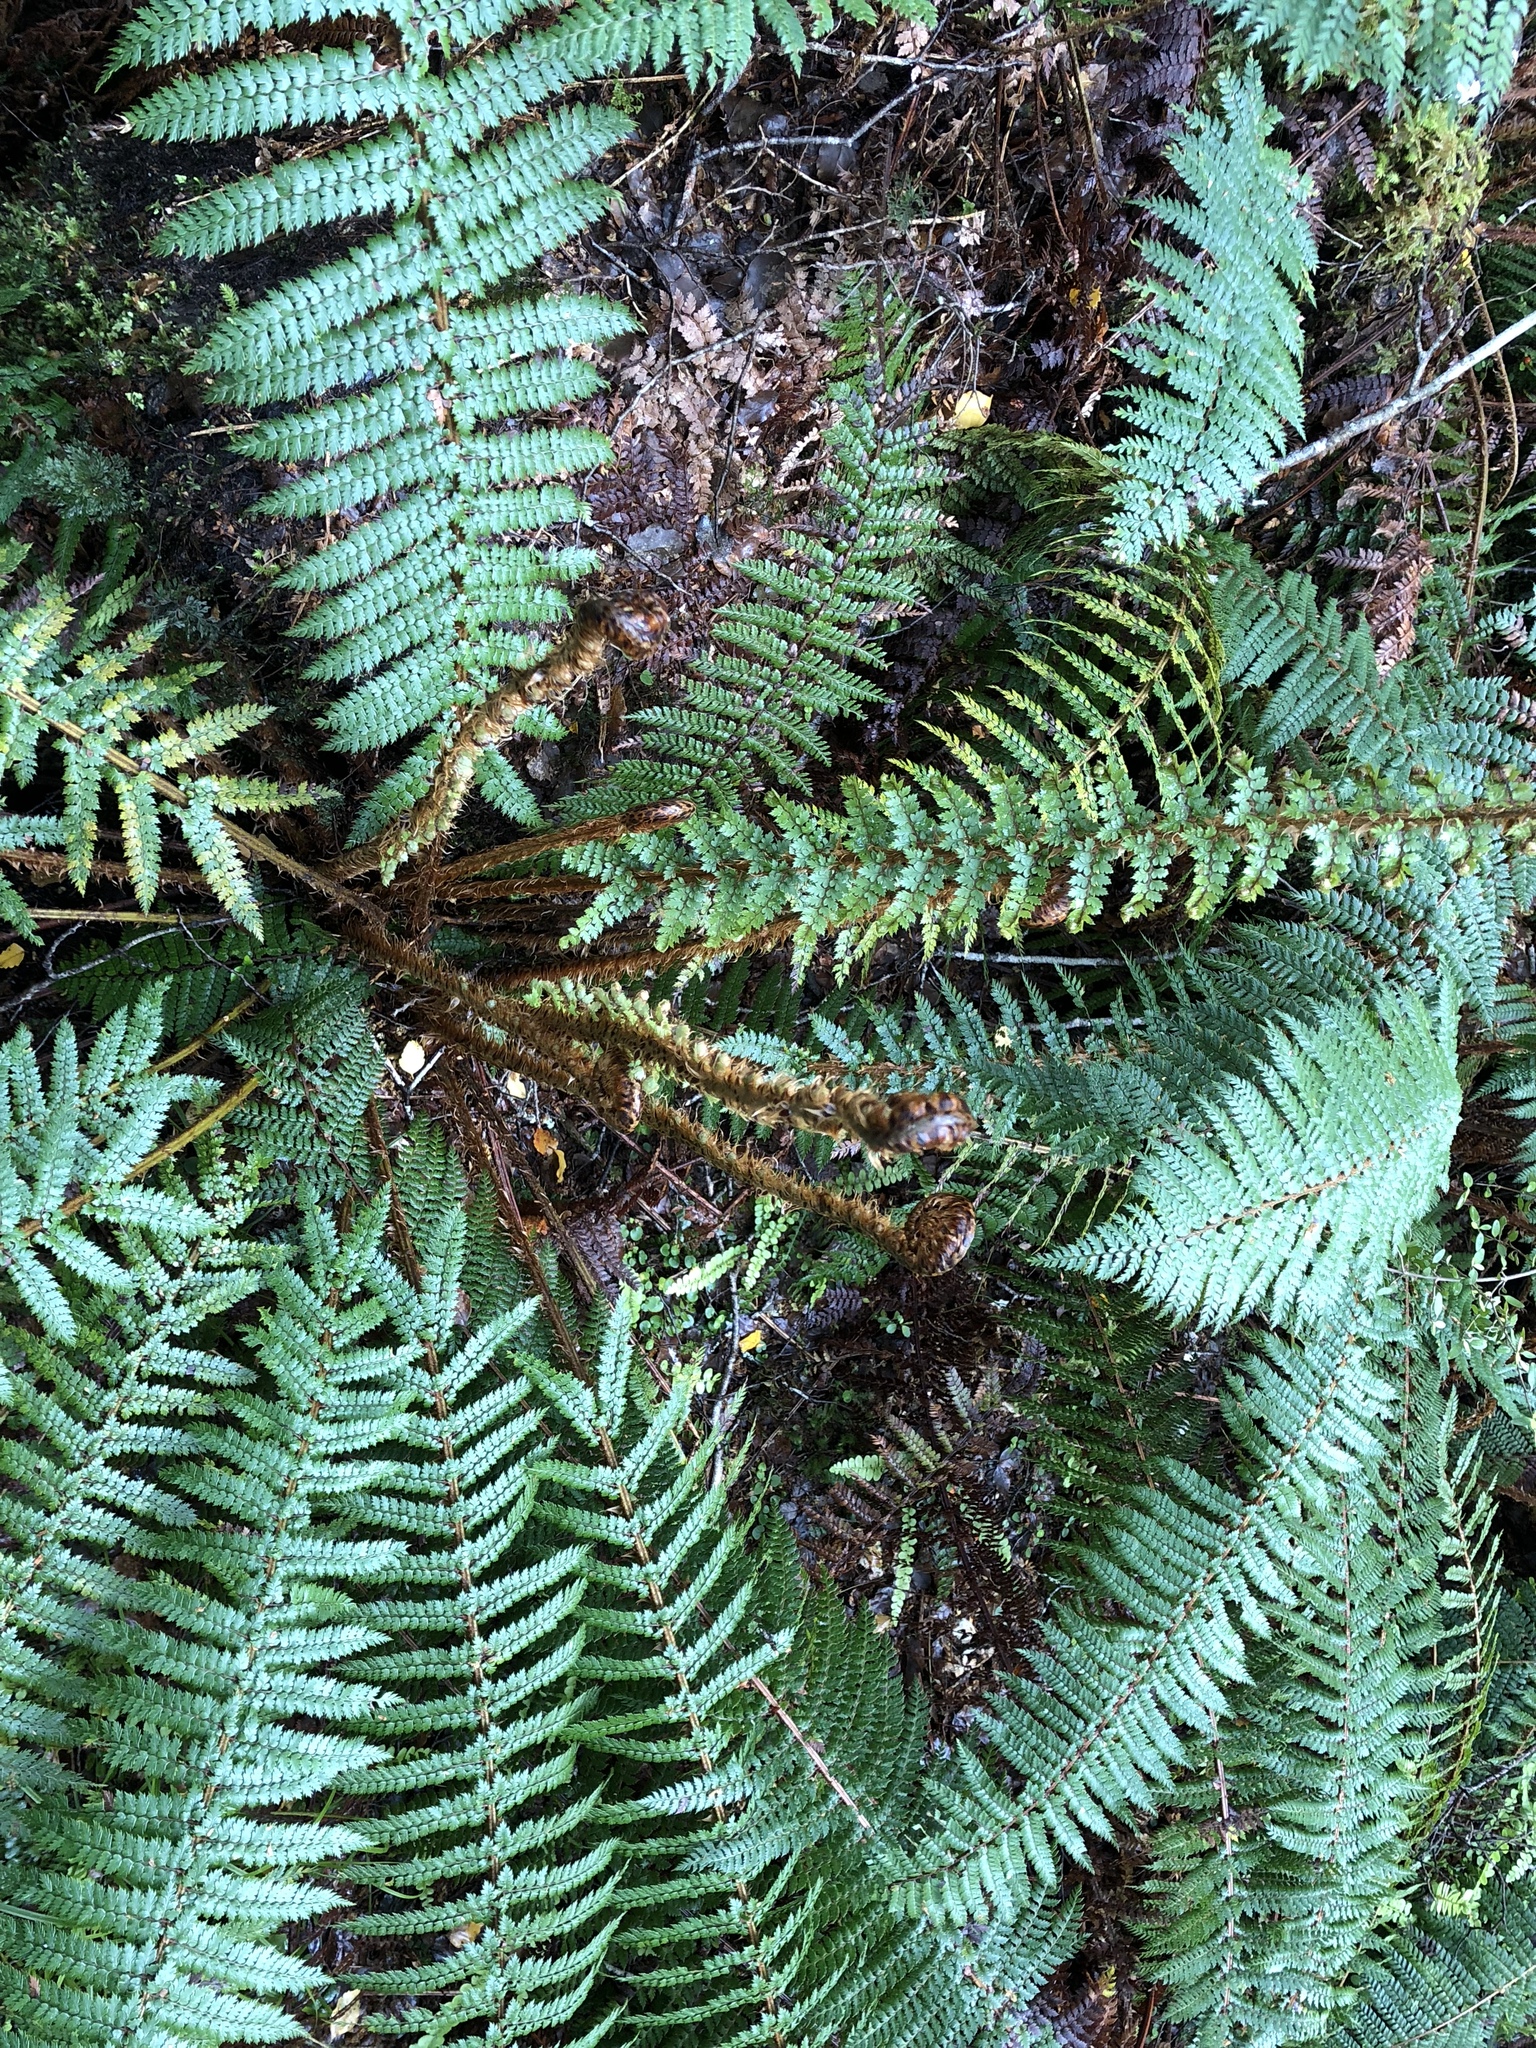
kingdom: Plantae
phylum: Tracheophyta
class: Polypodiopsida
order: Polypodiales
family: Dryopteridaceae
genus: Polystichum
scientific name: Polystichum vestitum
